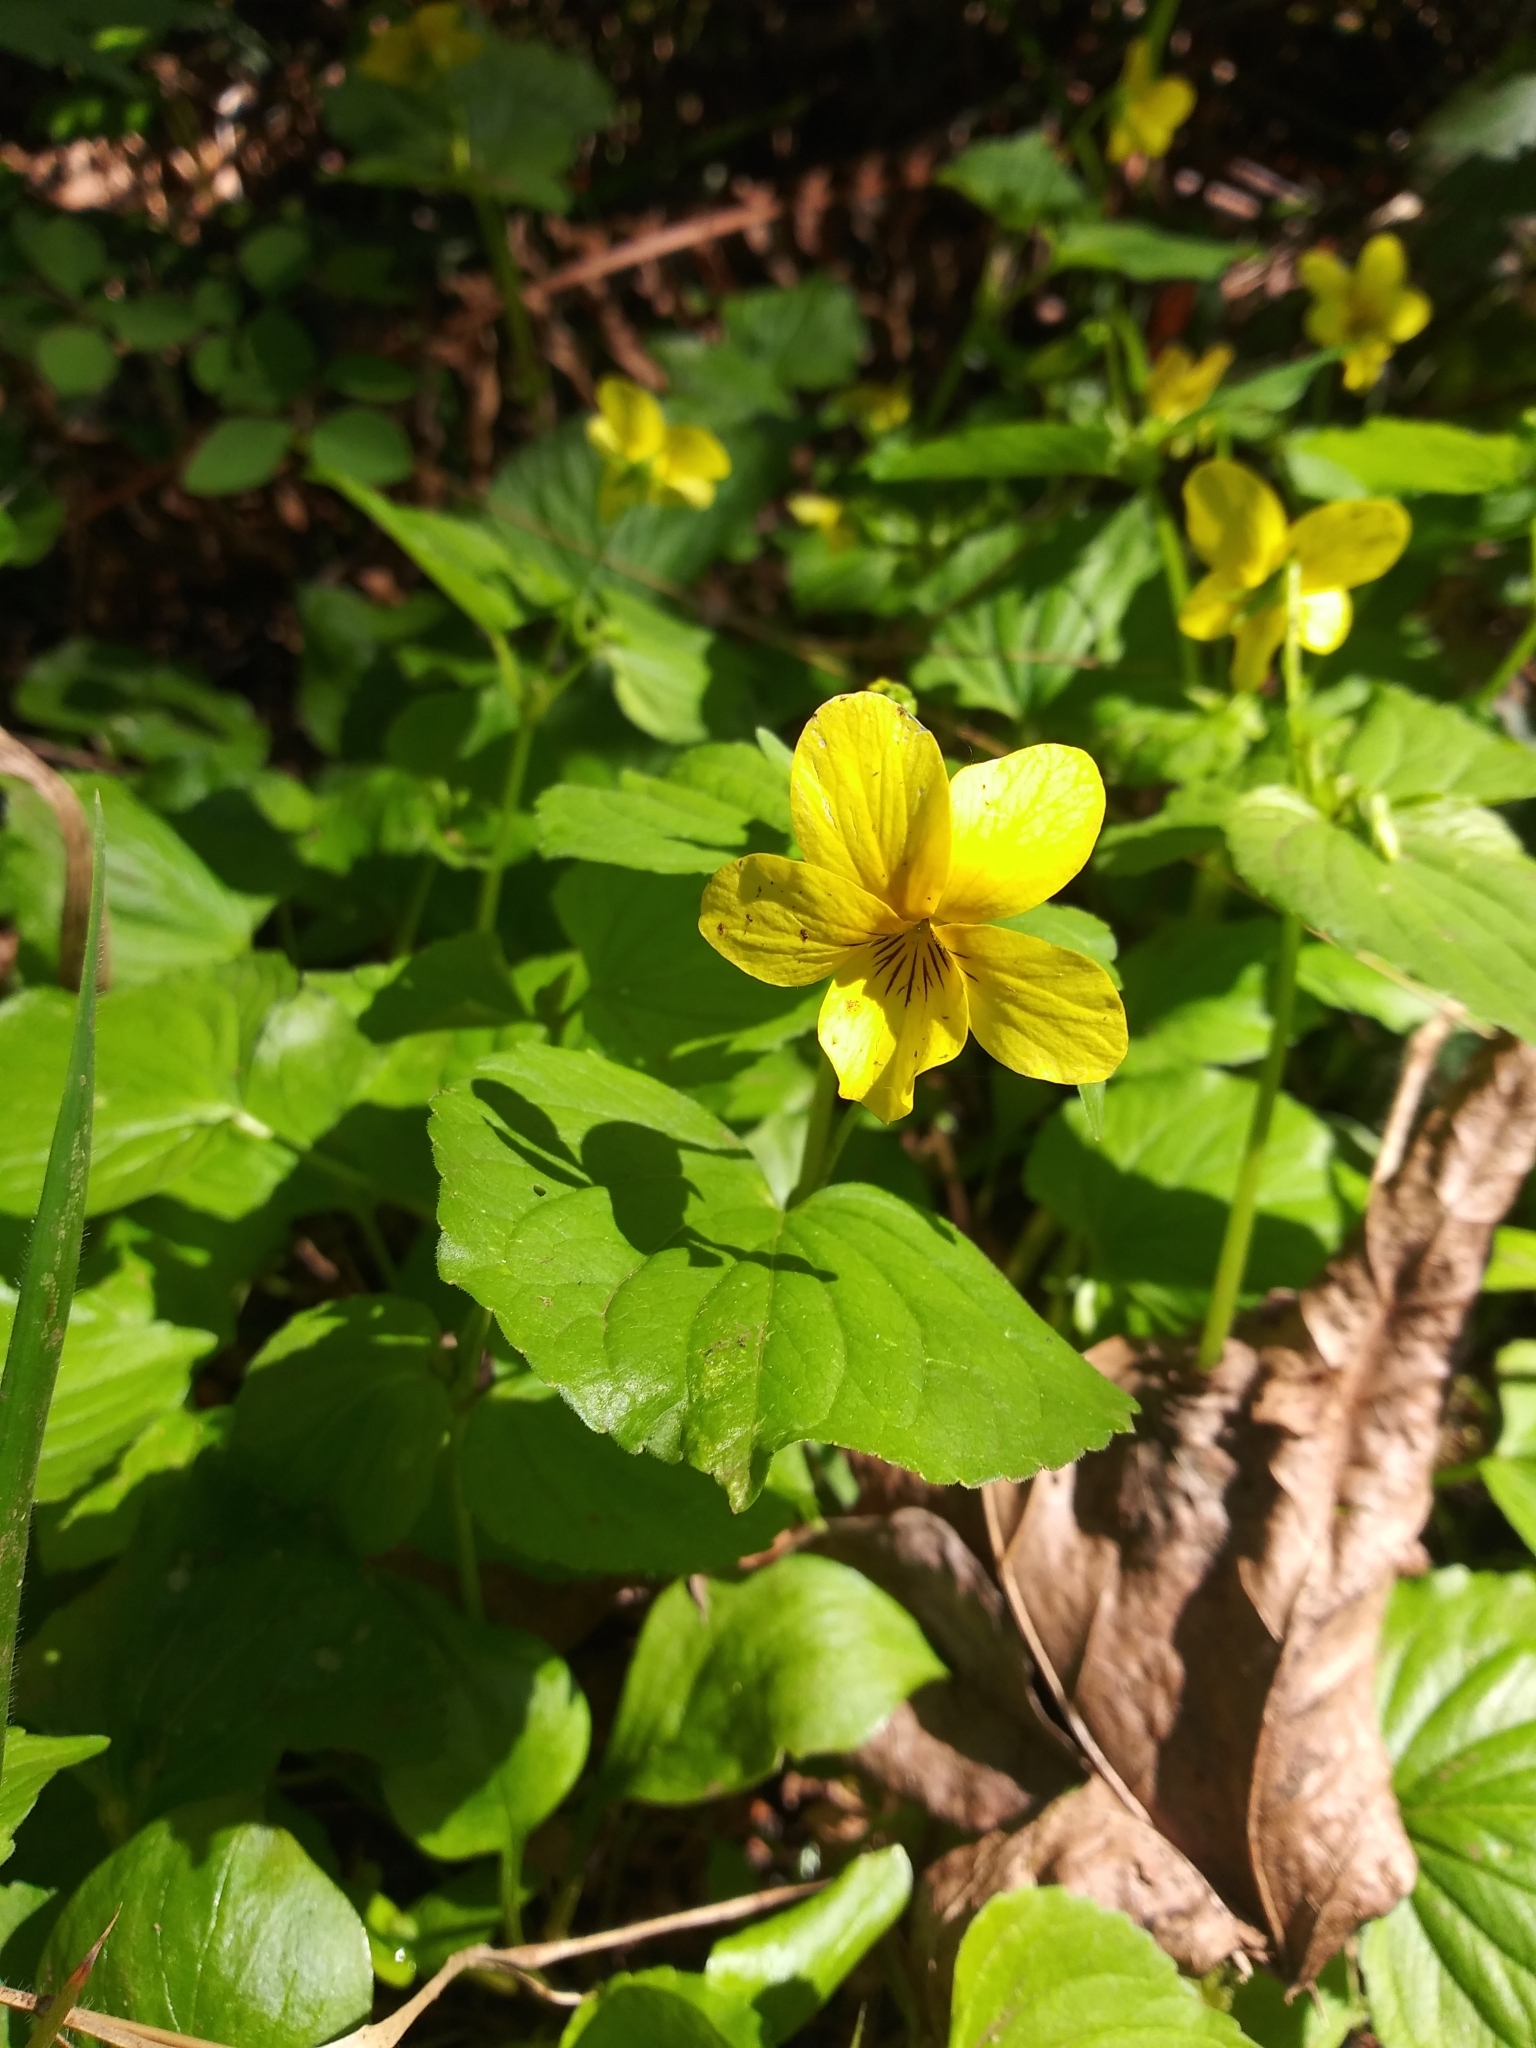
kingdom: Plantae
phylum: Tracheophyta
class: Magnoliopsida
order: Malpighiales
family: Violaceae
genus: Viola
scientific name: Viola glabella
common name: Stream violet
